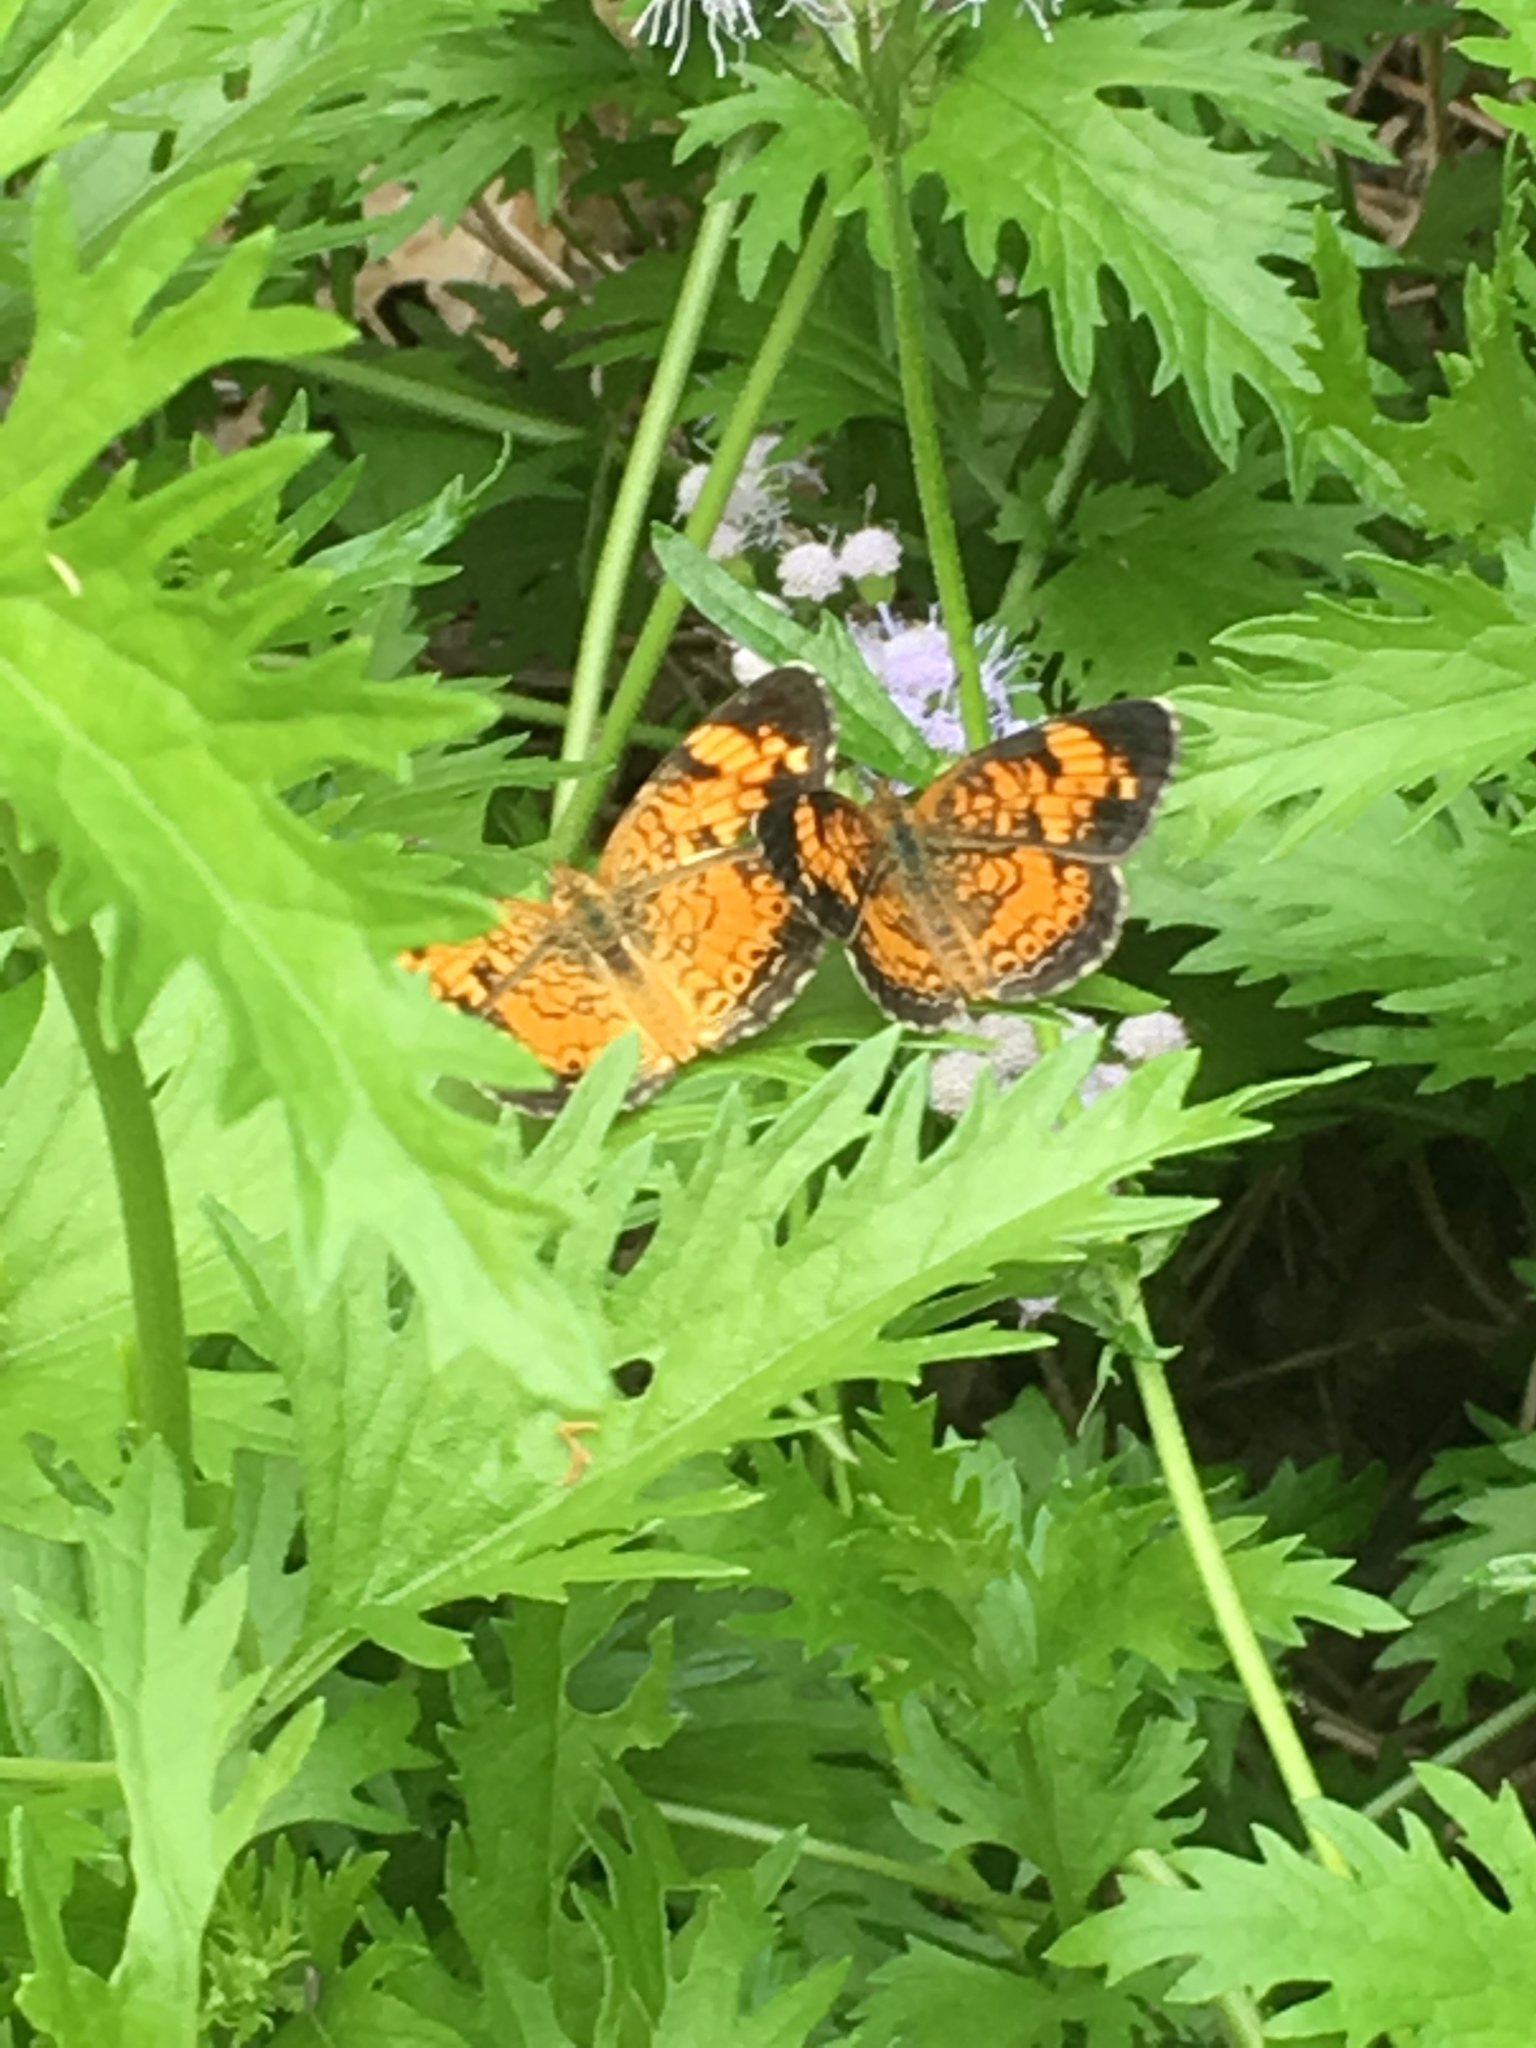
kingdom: Animalia
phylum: Arthropoda
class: Insecta
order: Lepidoptera
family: Nymphalidae
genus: Phyciodes
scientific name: Phyciodes tharos
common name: Pearl crescent
